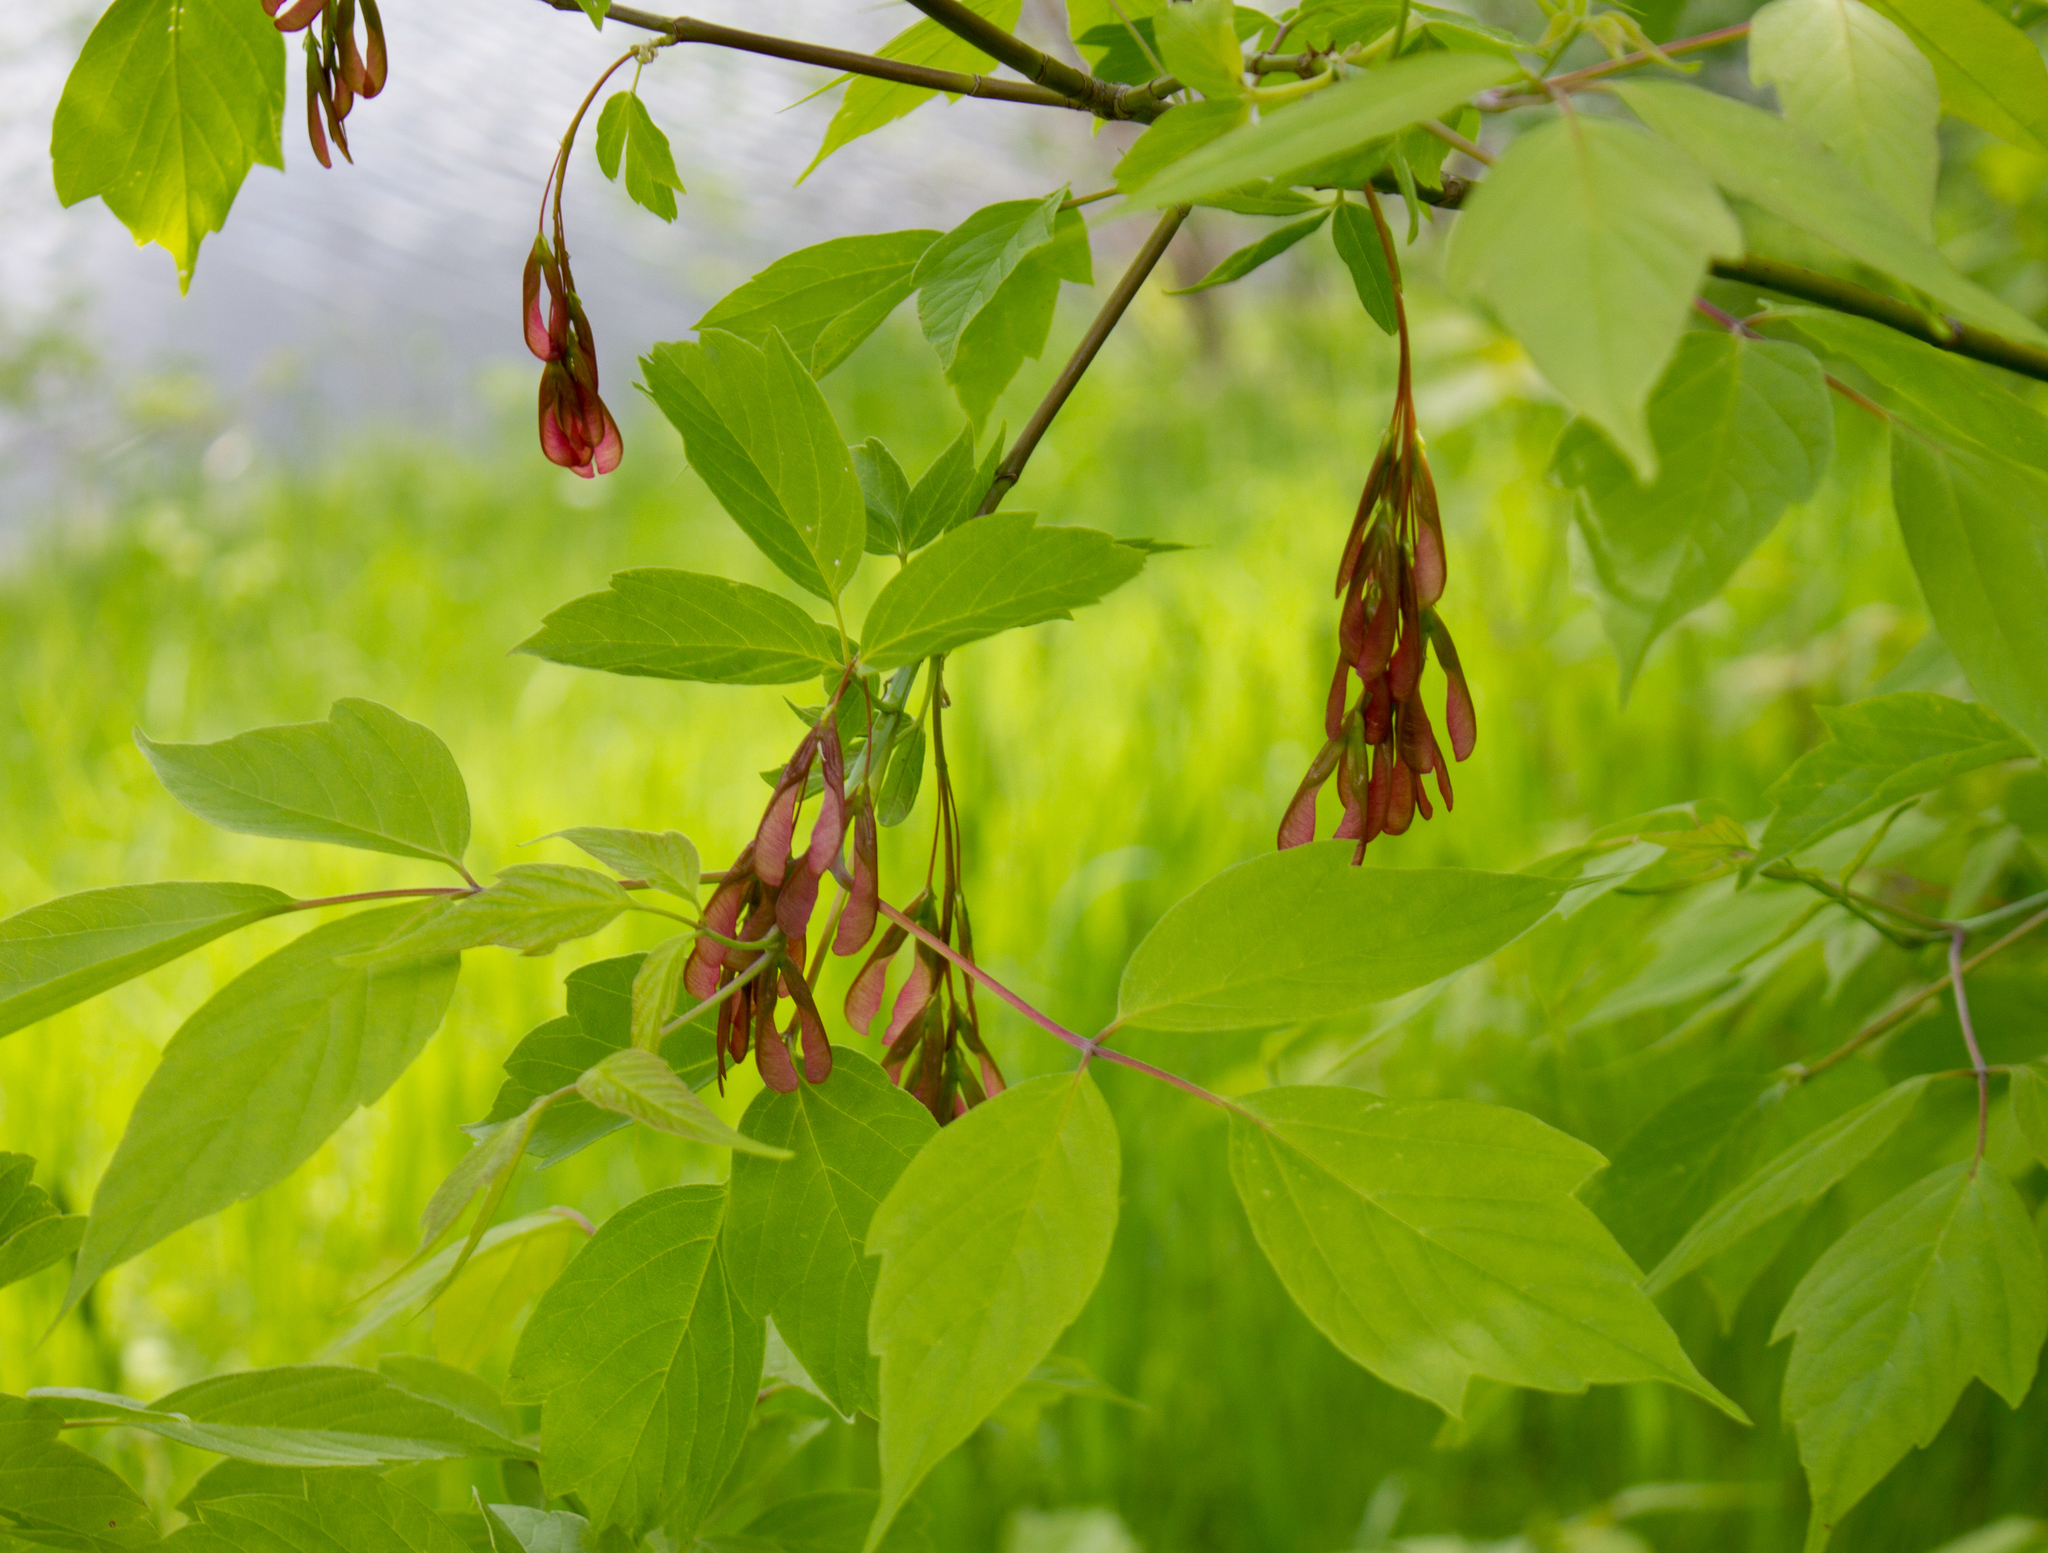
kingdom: Plantae
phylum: Tracheophyta
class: Magnoliopsida
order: Sapindales
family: Sapindaceae
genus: Acer
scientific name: Acer negundo
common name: Ashleaf maple
